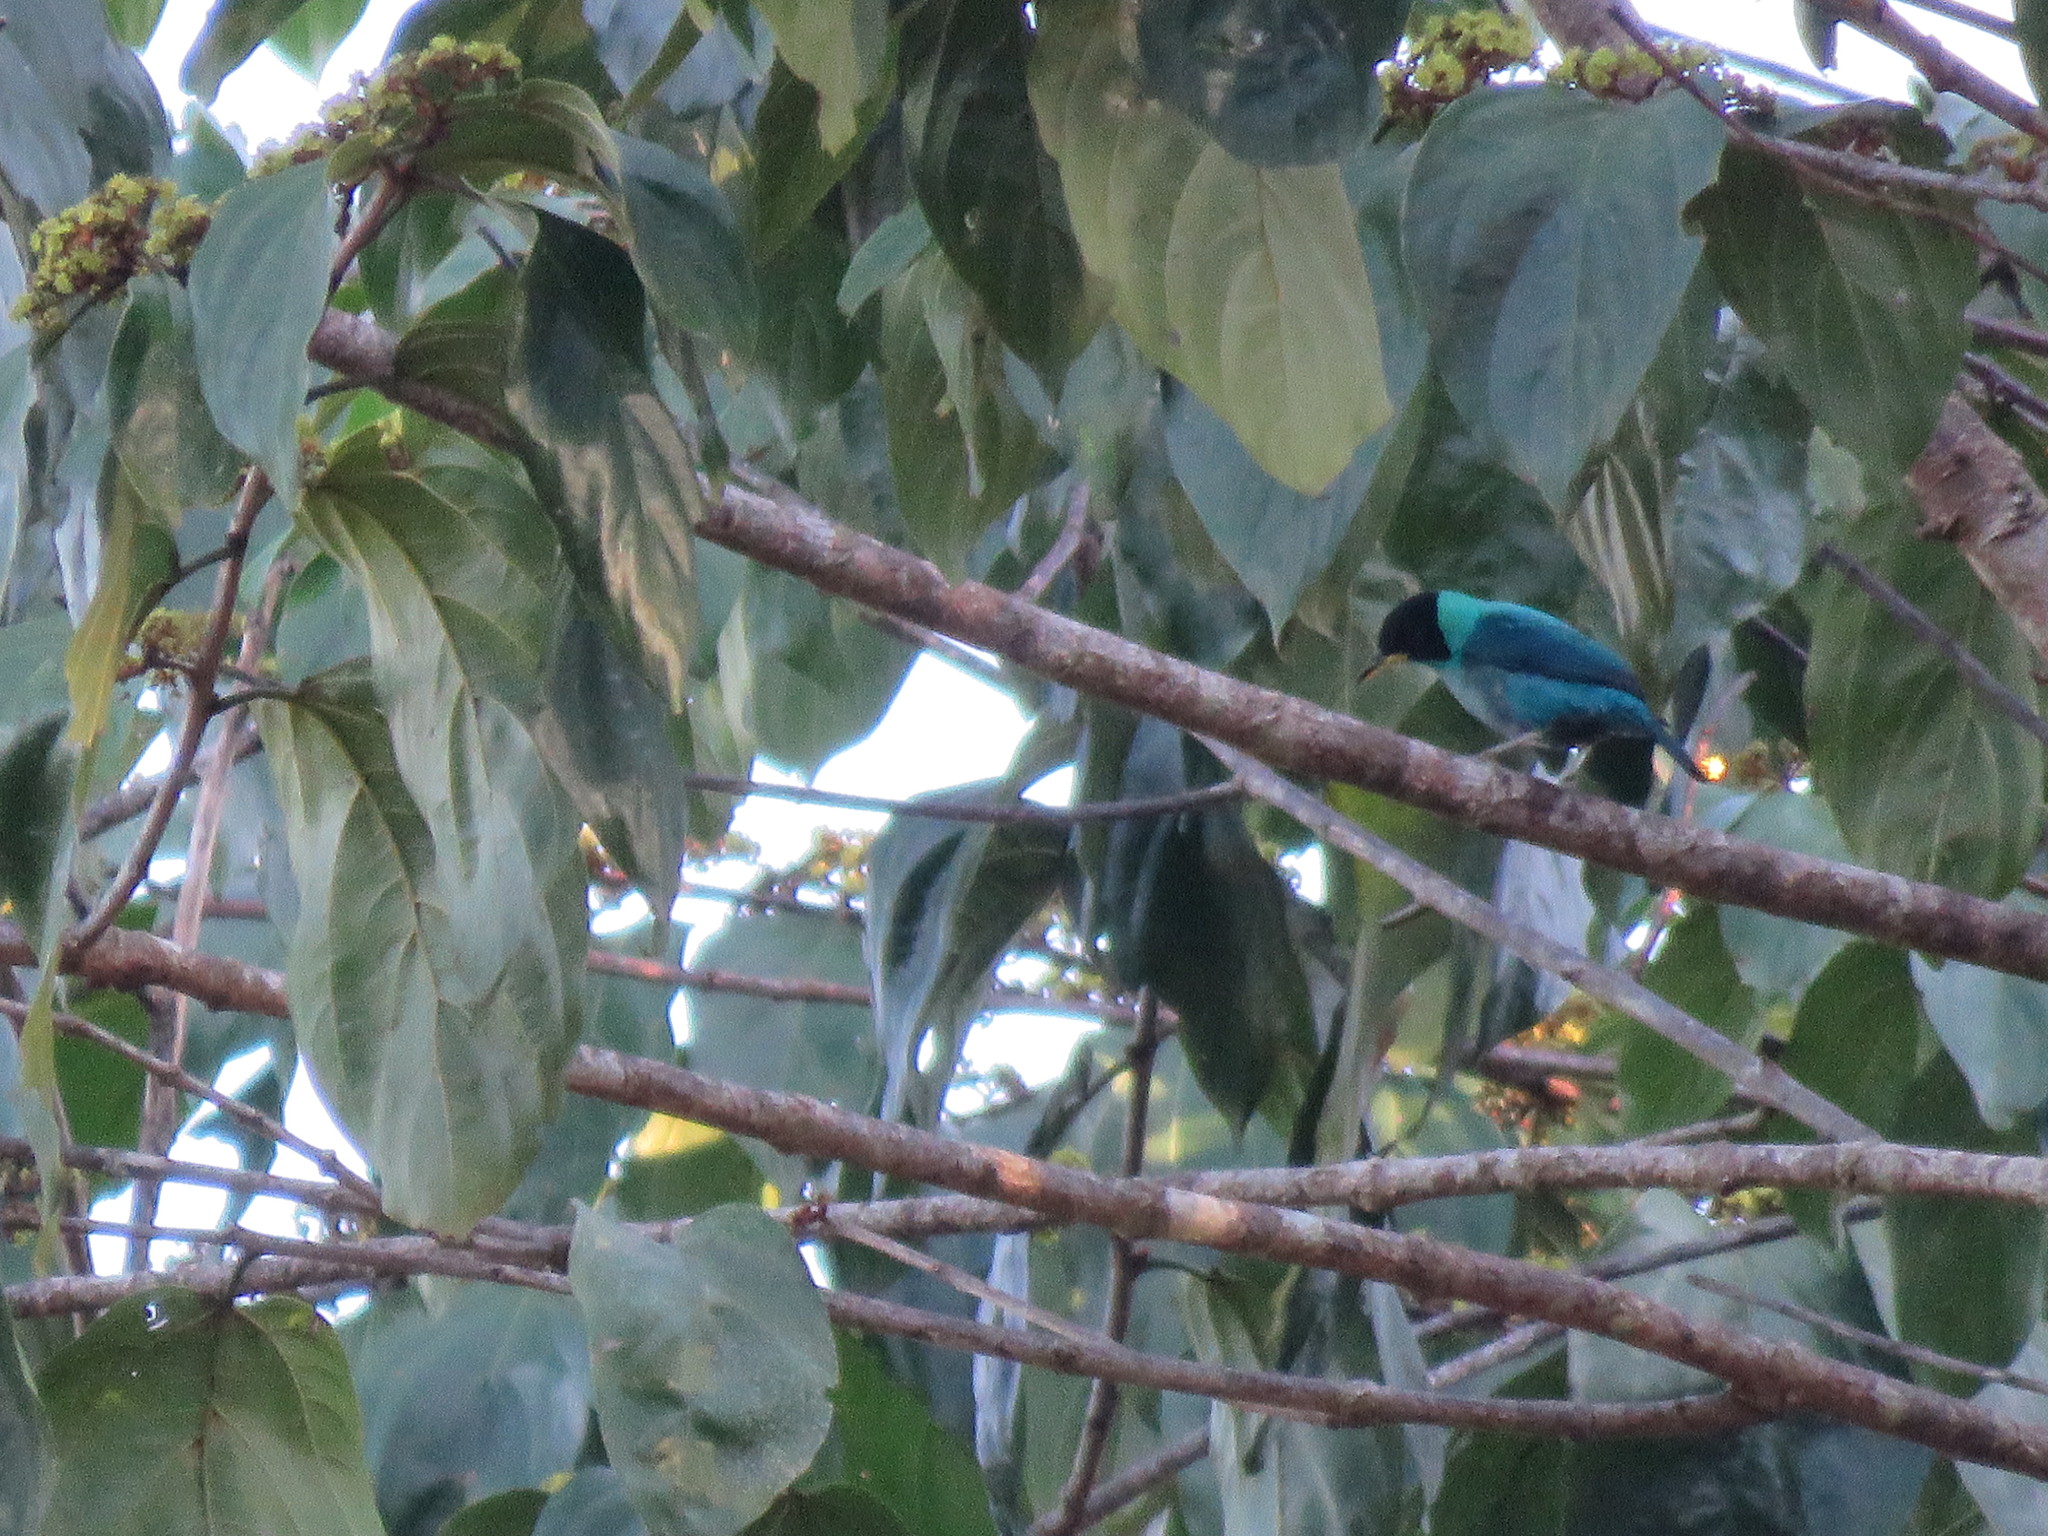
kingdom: Animalia
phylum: Chordata
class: Aves
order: Passeriformes
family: Thraupidae
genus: Chlorophanes
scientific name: Chlorophanes spiza
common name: Green honeycreeper
